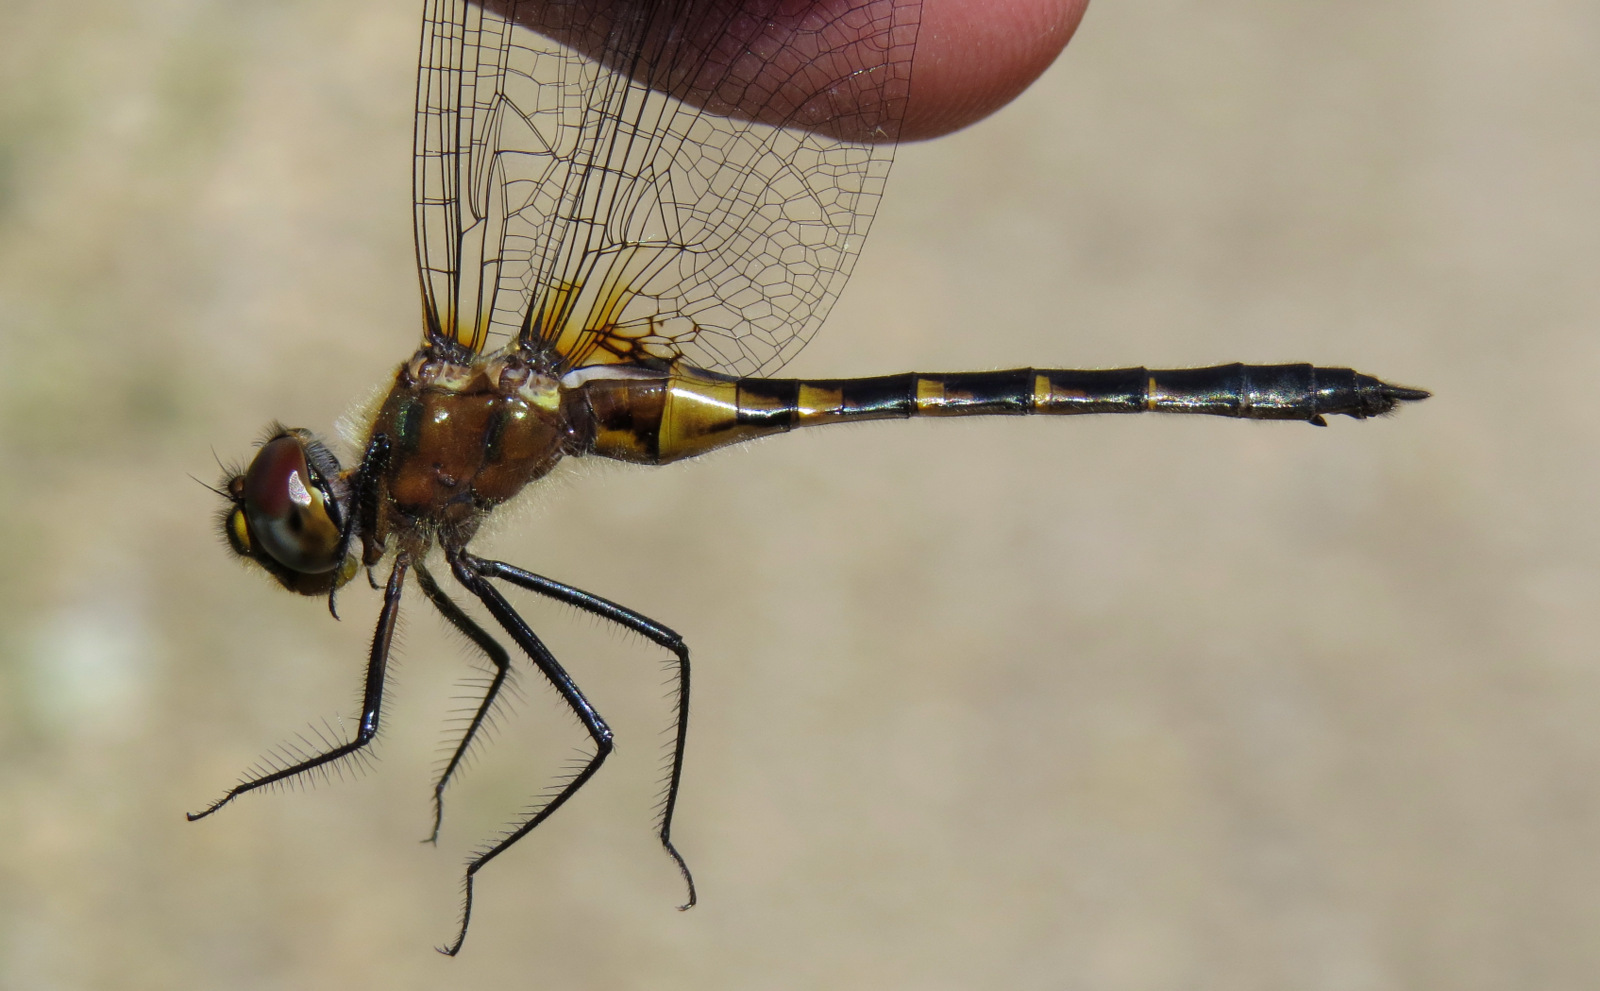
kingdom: Animalia
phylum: Arthropoda
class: Insecta
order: Odonata
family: Corduliidae
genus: Dorocordulia
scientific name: Dorocordulia lepida
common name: Petite emerald
